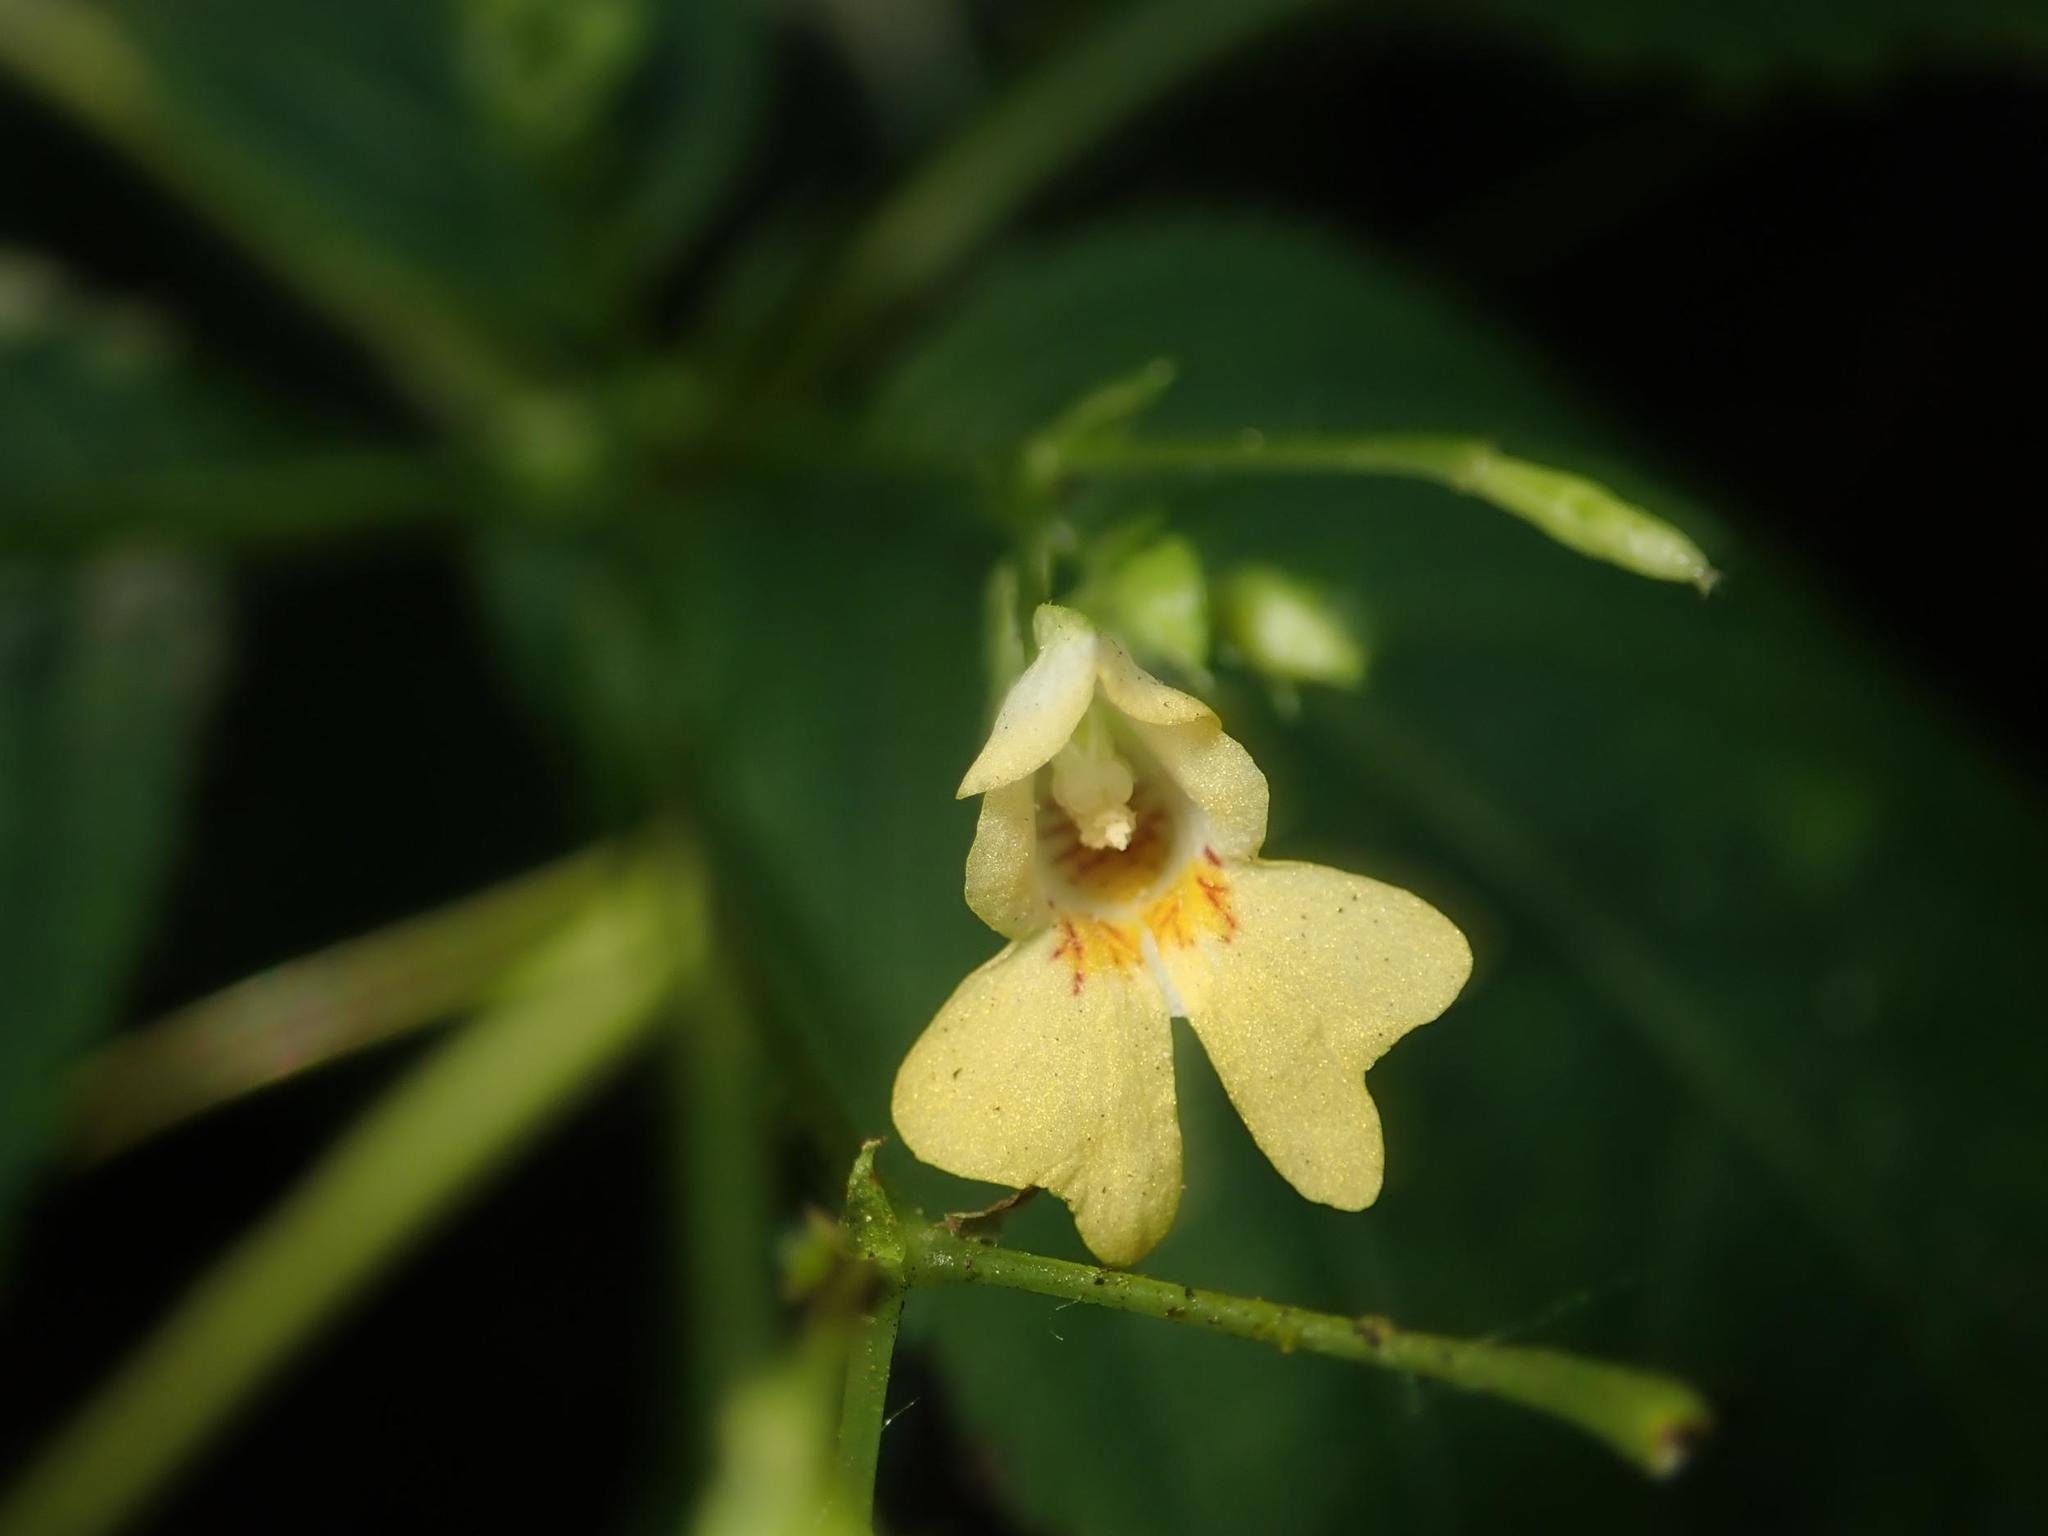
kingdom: Plantae
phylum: Tracheophyta
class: Magnoliopsida
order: Ericales
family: Balsaminaceae
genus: Impatiens
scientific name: Impatiens parviflora
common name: Small balsam
